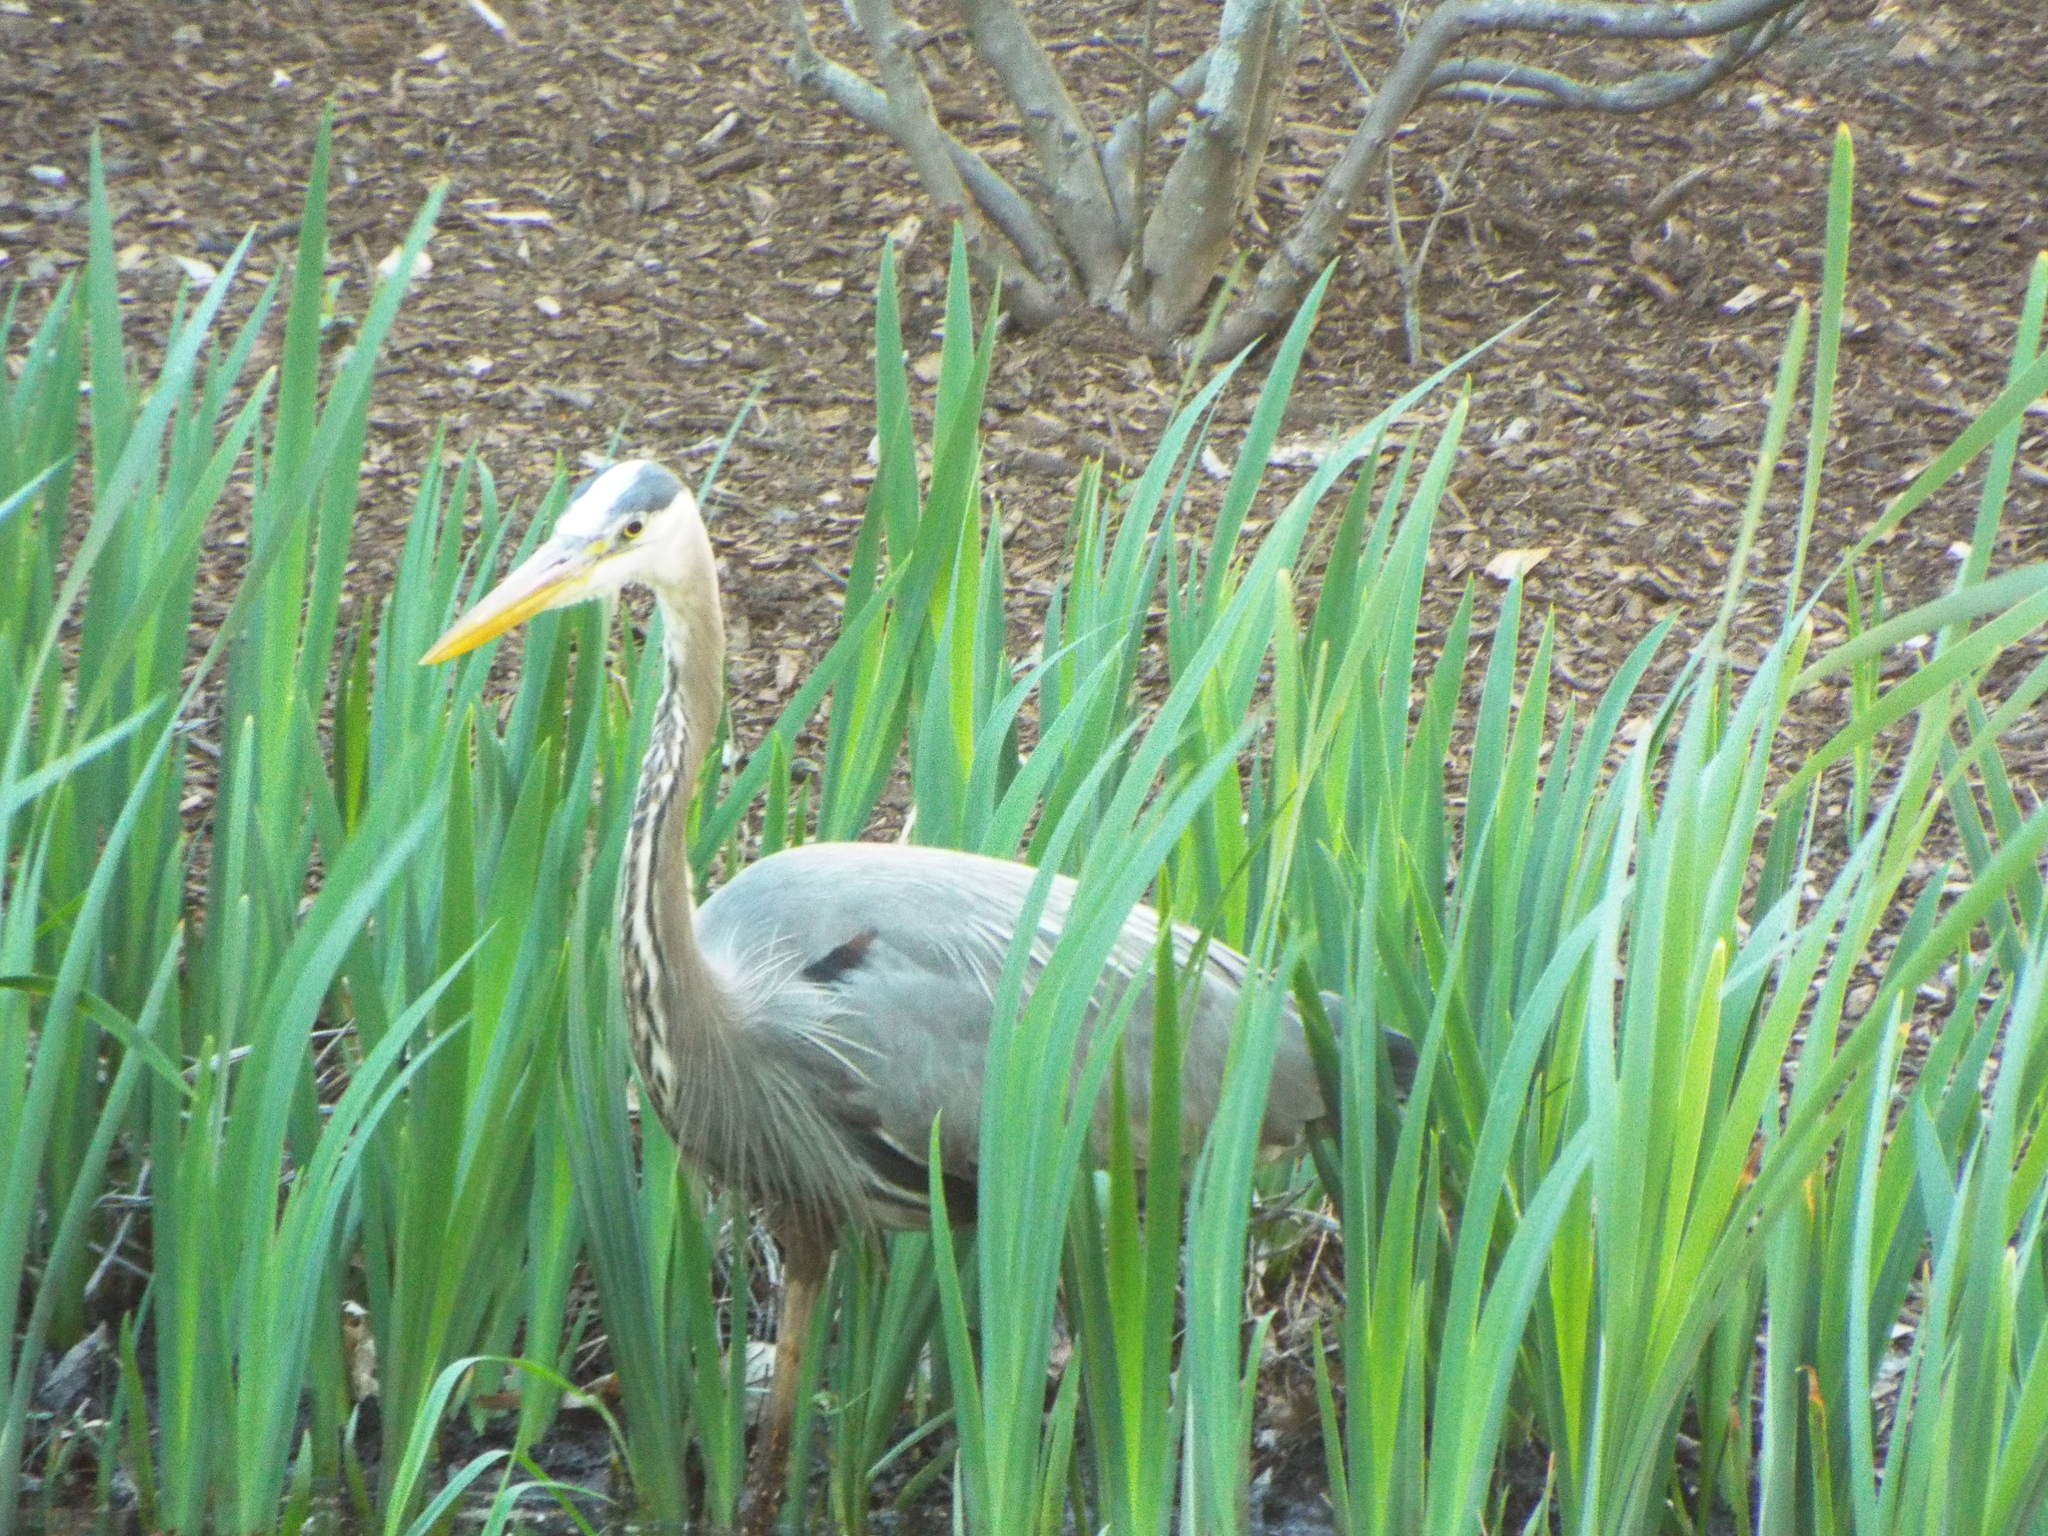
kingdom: Animalia
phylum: Chordata
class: Aves
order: Pelecaniformes
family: Ardeidae
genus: Ardea
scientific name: Ardea herodias
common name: Great blue heron
